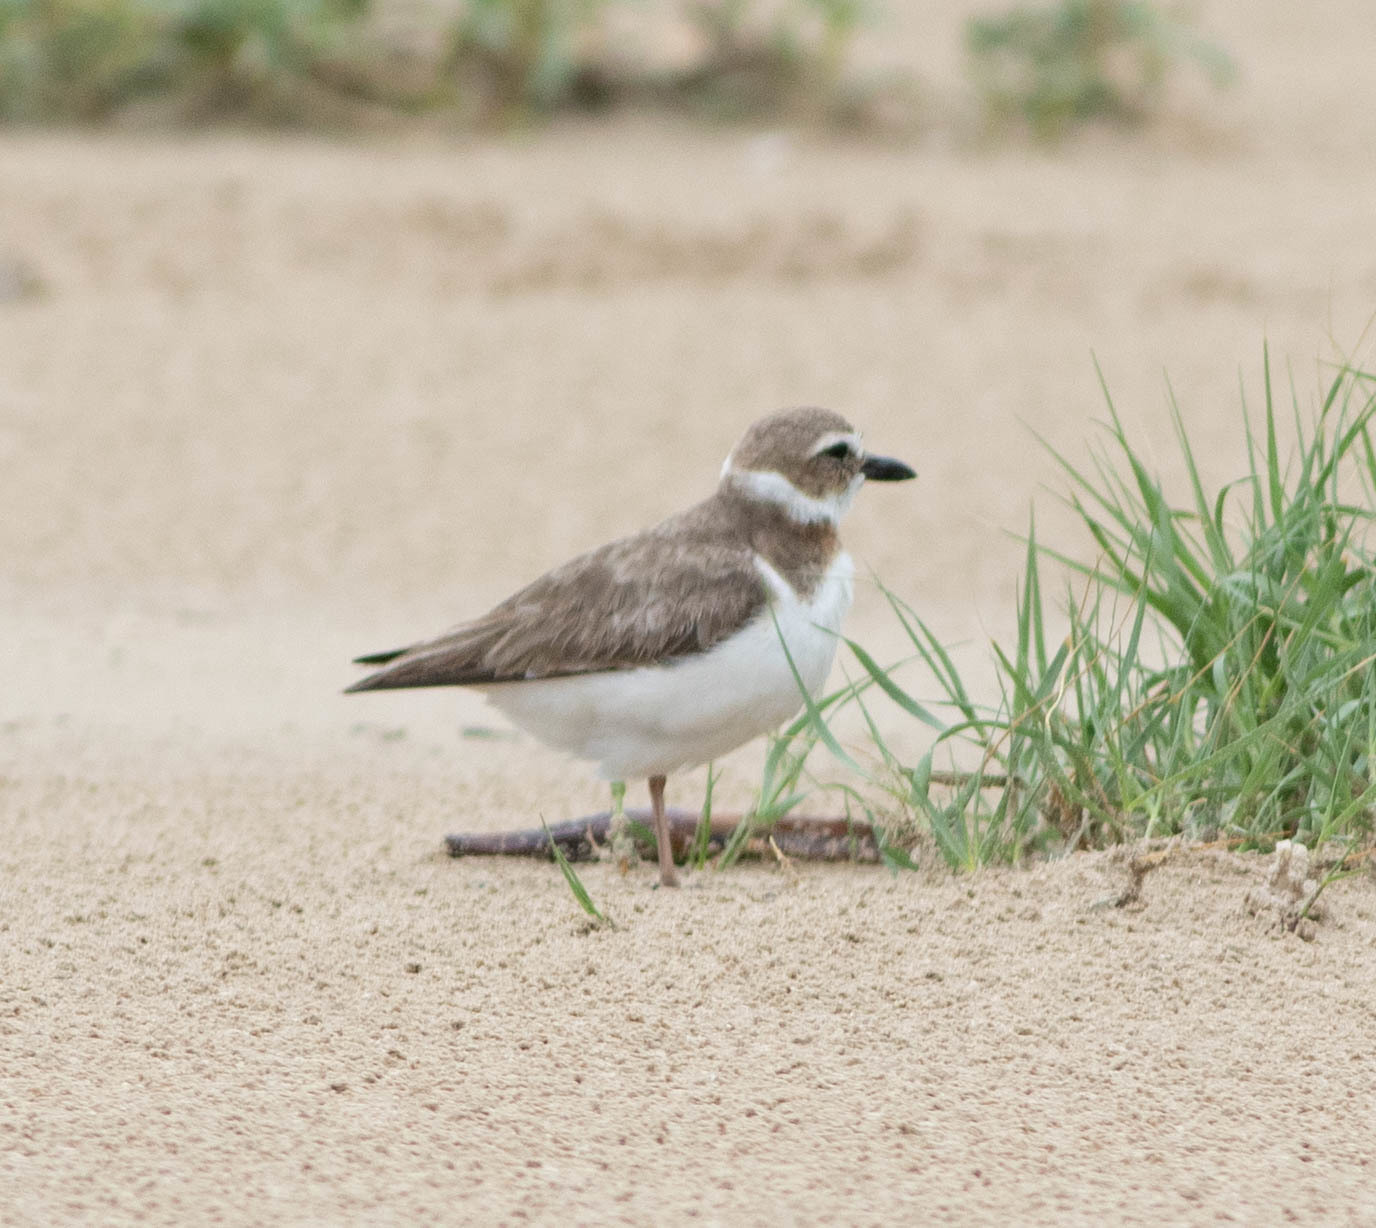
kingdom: Animalia
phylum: Chordata
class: Aves
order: Charadriiformes
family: Charadriidae
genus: Anarhynchus
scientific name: Anarhynchus
